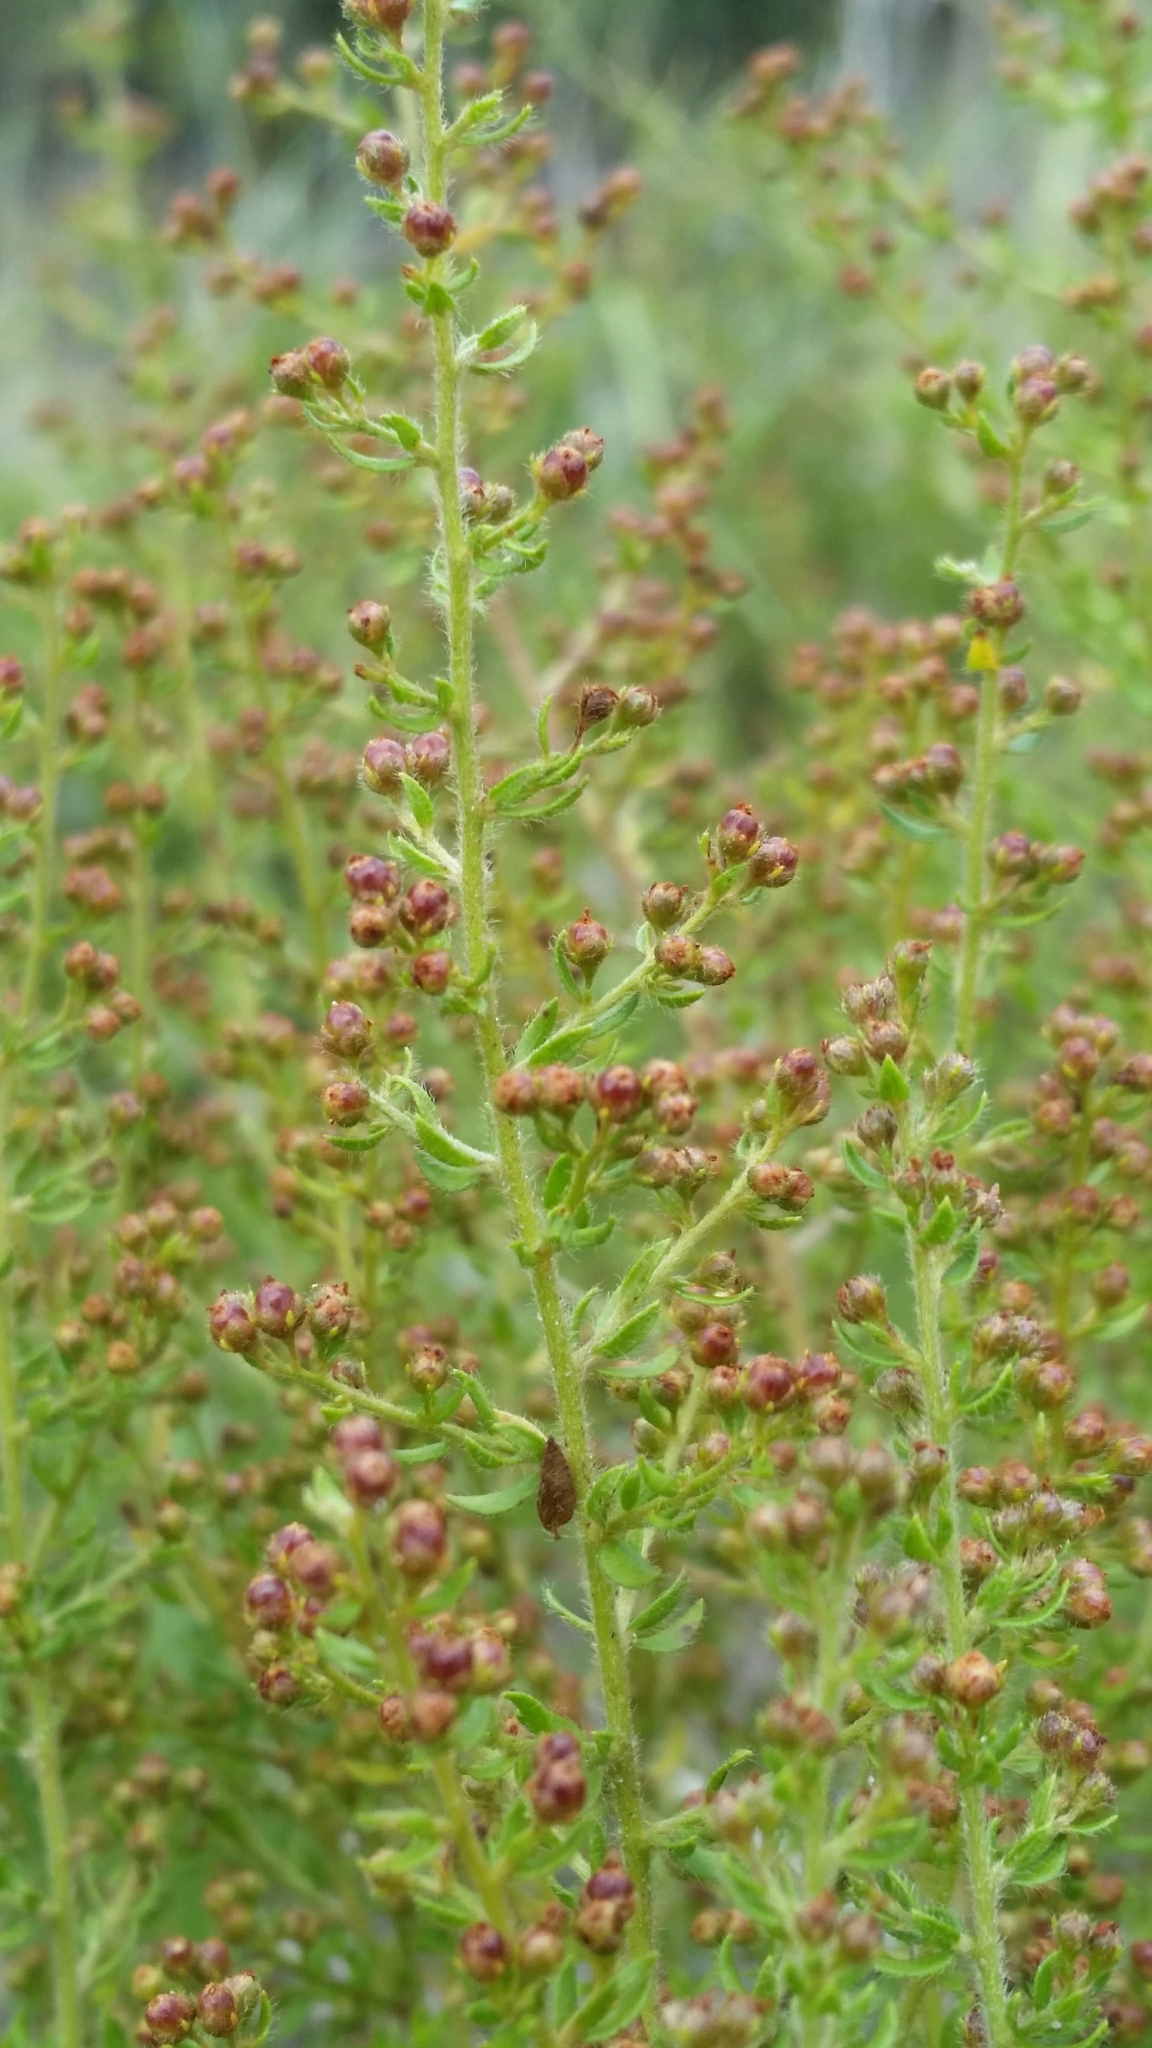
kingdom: Plantae
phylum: Tracheophyta
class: Magnoliopsida
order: Malvales
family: Cistaceae
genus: Lechea
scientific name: Lechea divaricata
